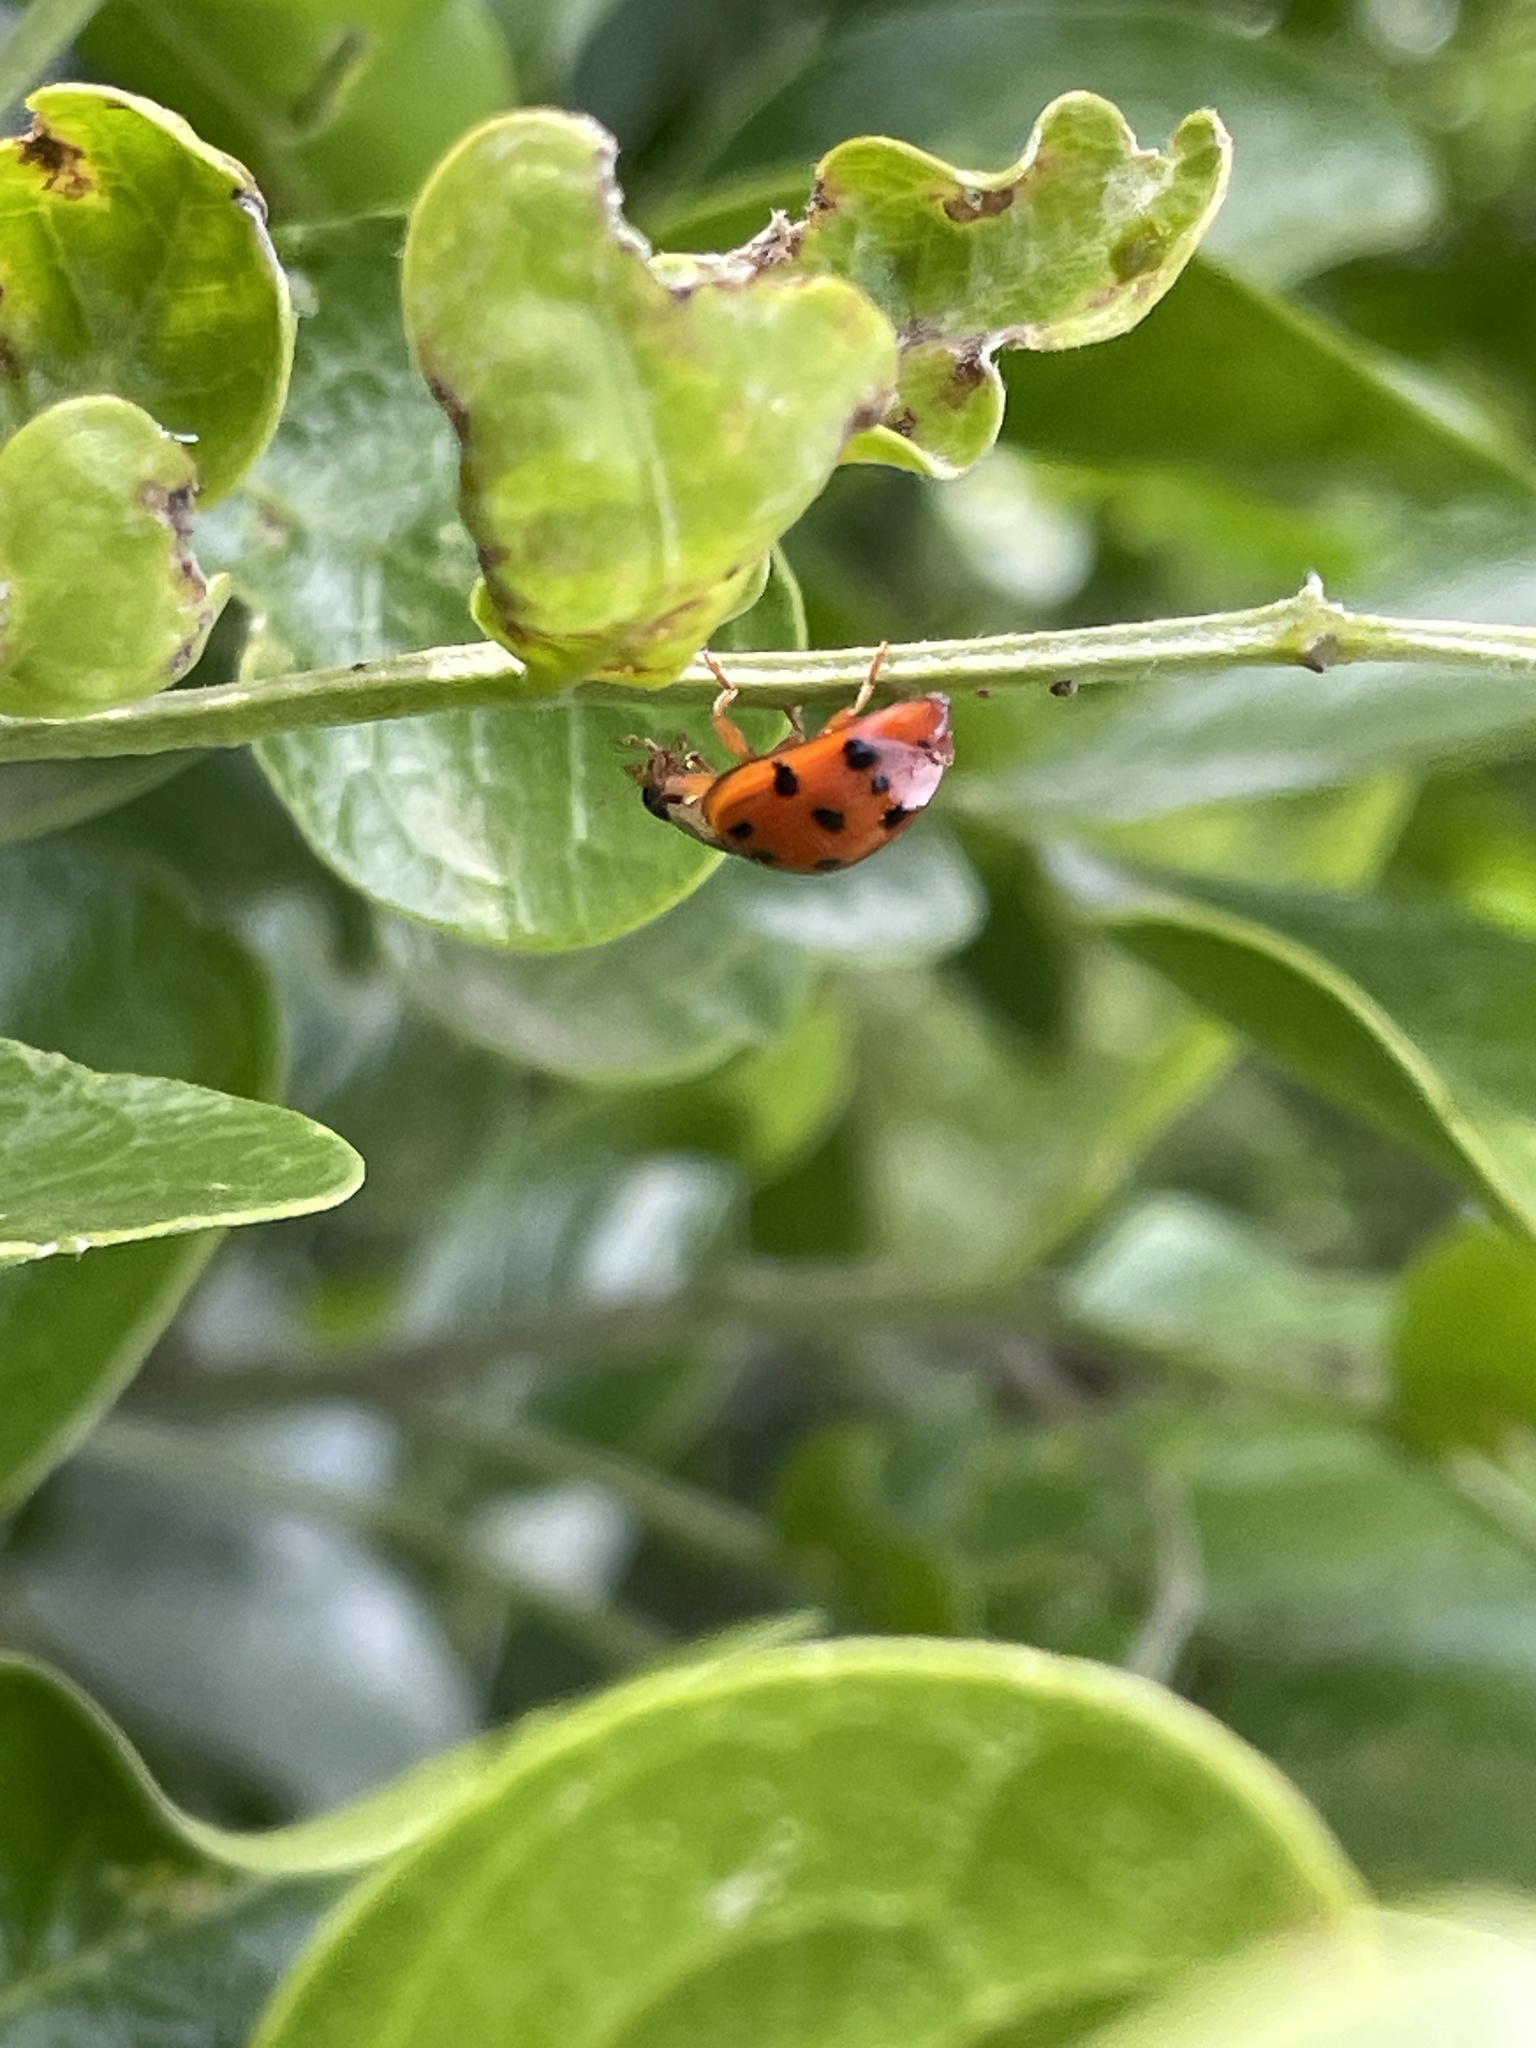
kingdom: Animalia
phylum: Arthropoda
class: Insecta
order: Coleoptera
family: Coccinellidae
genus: Harmonia
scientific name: Harmonia axyridis
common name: Harlequin ladybird
